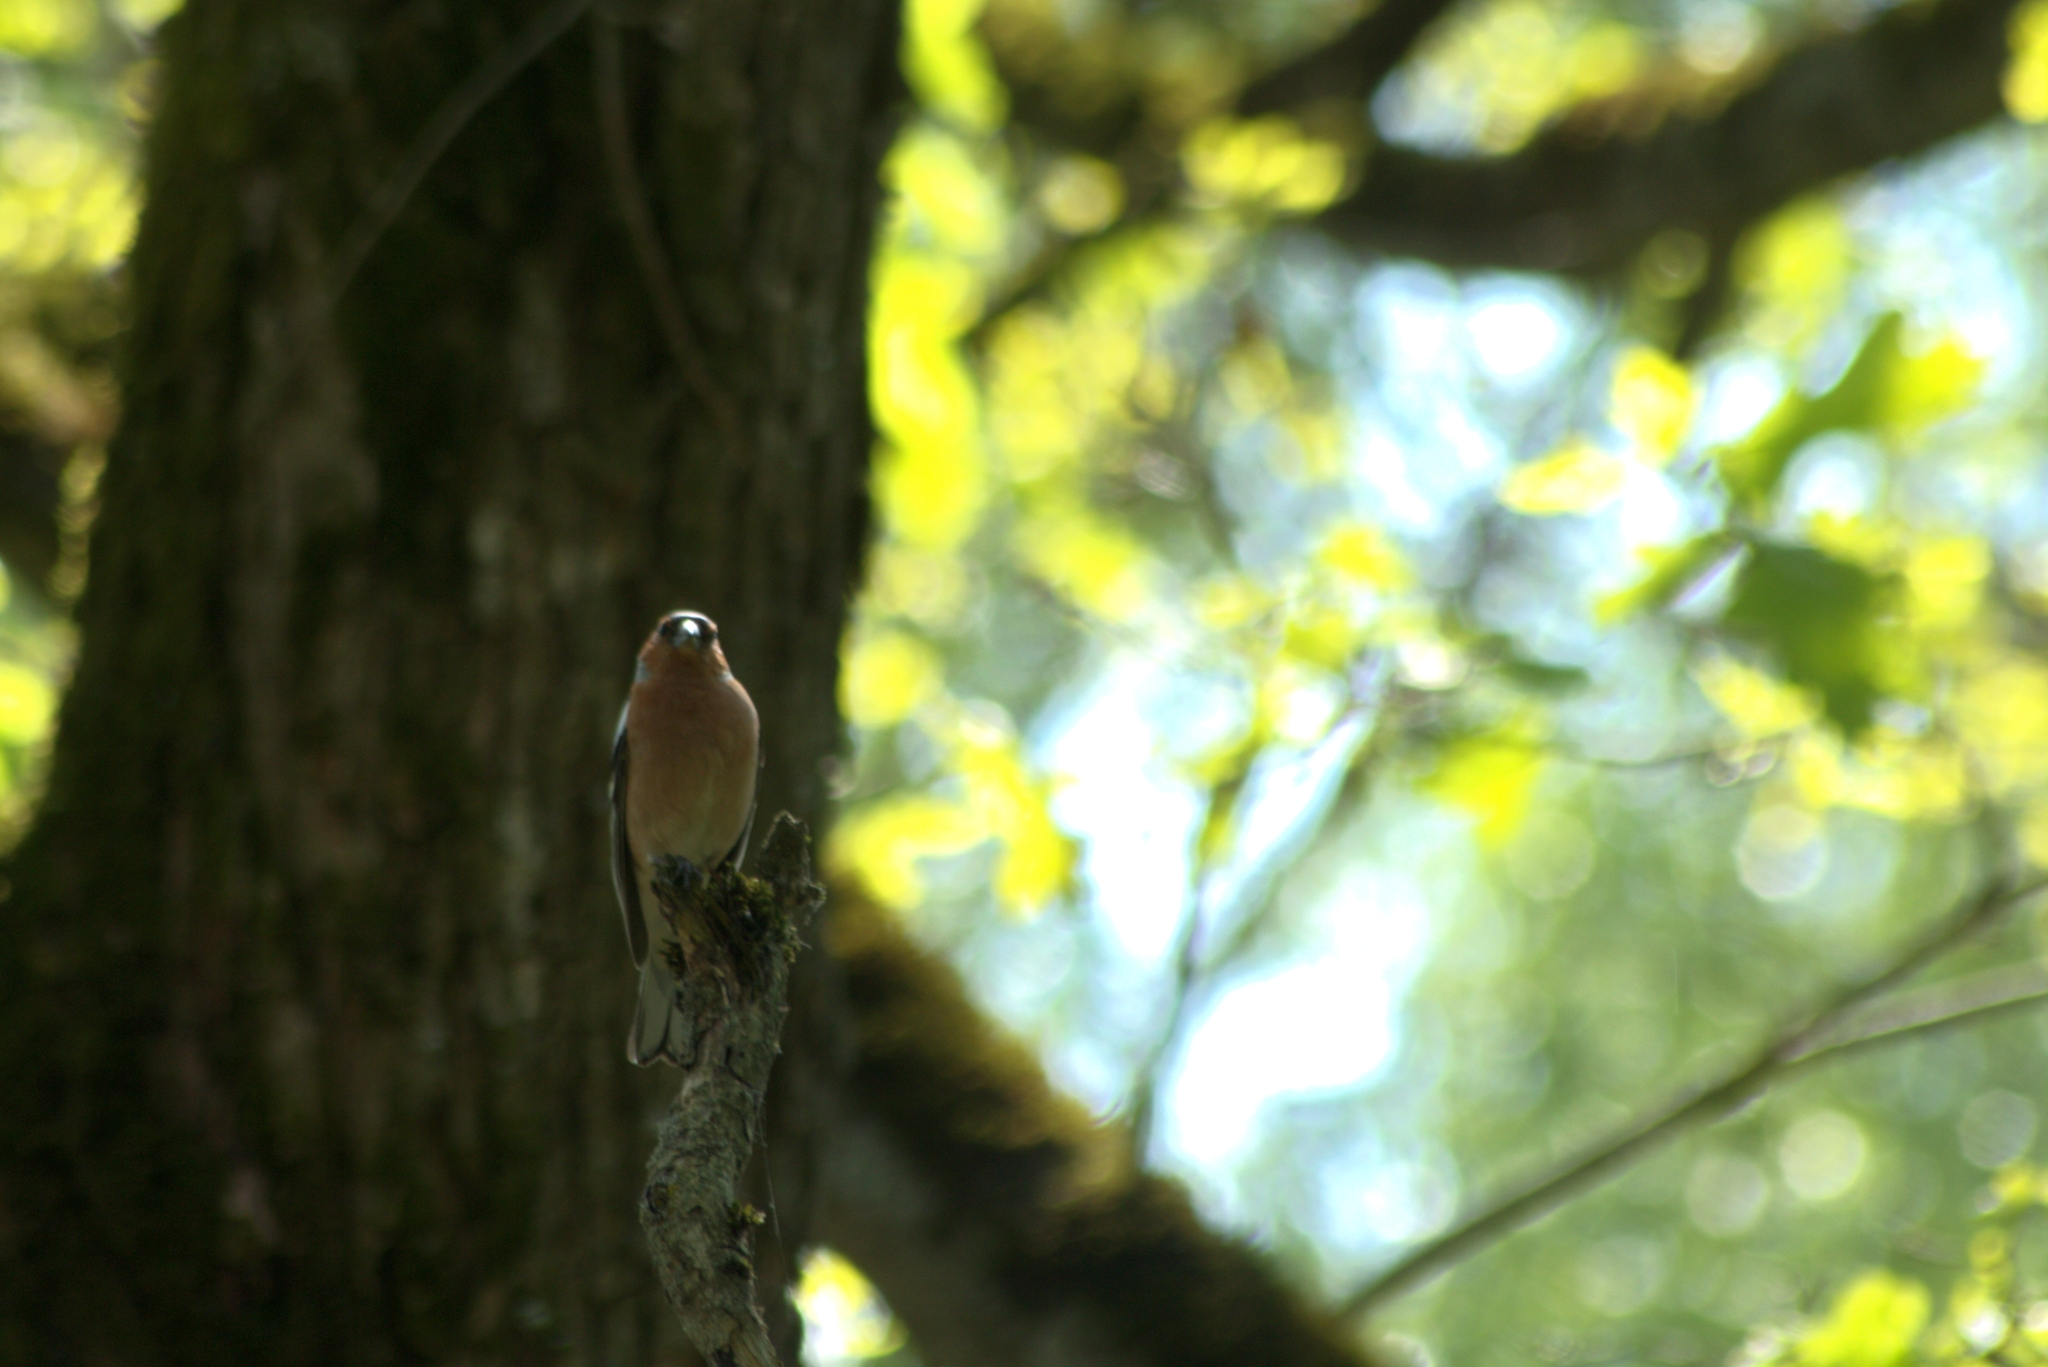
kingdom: Animalia
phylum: Chordata
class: Aves
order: Passeriformes
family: Fringillidae
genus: Fringilla
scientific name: Fringilla coelebs
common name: Common chaffinch
